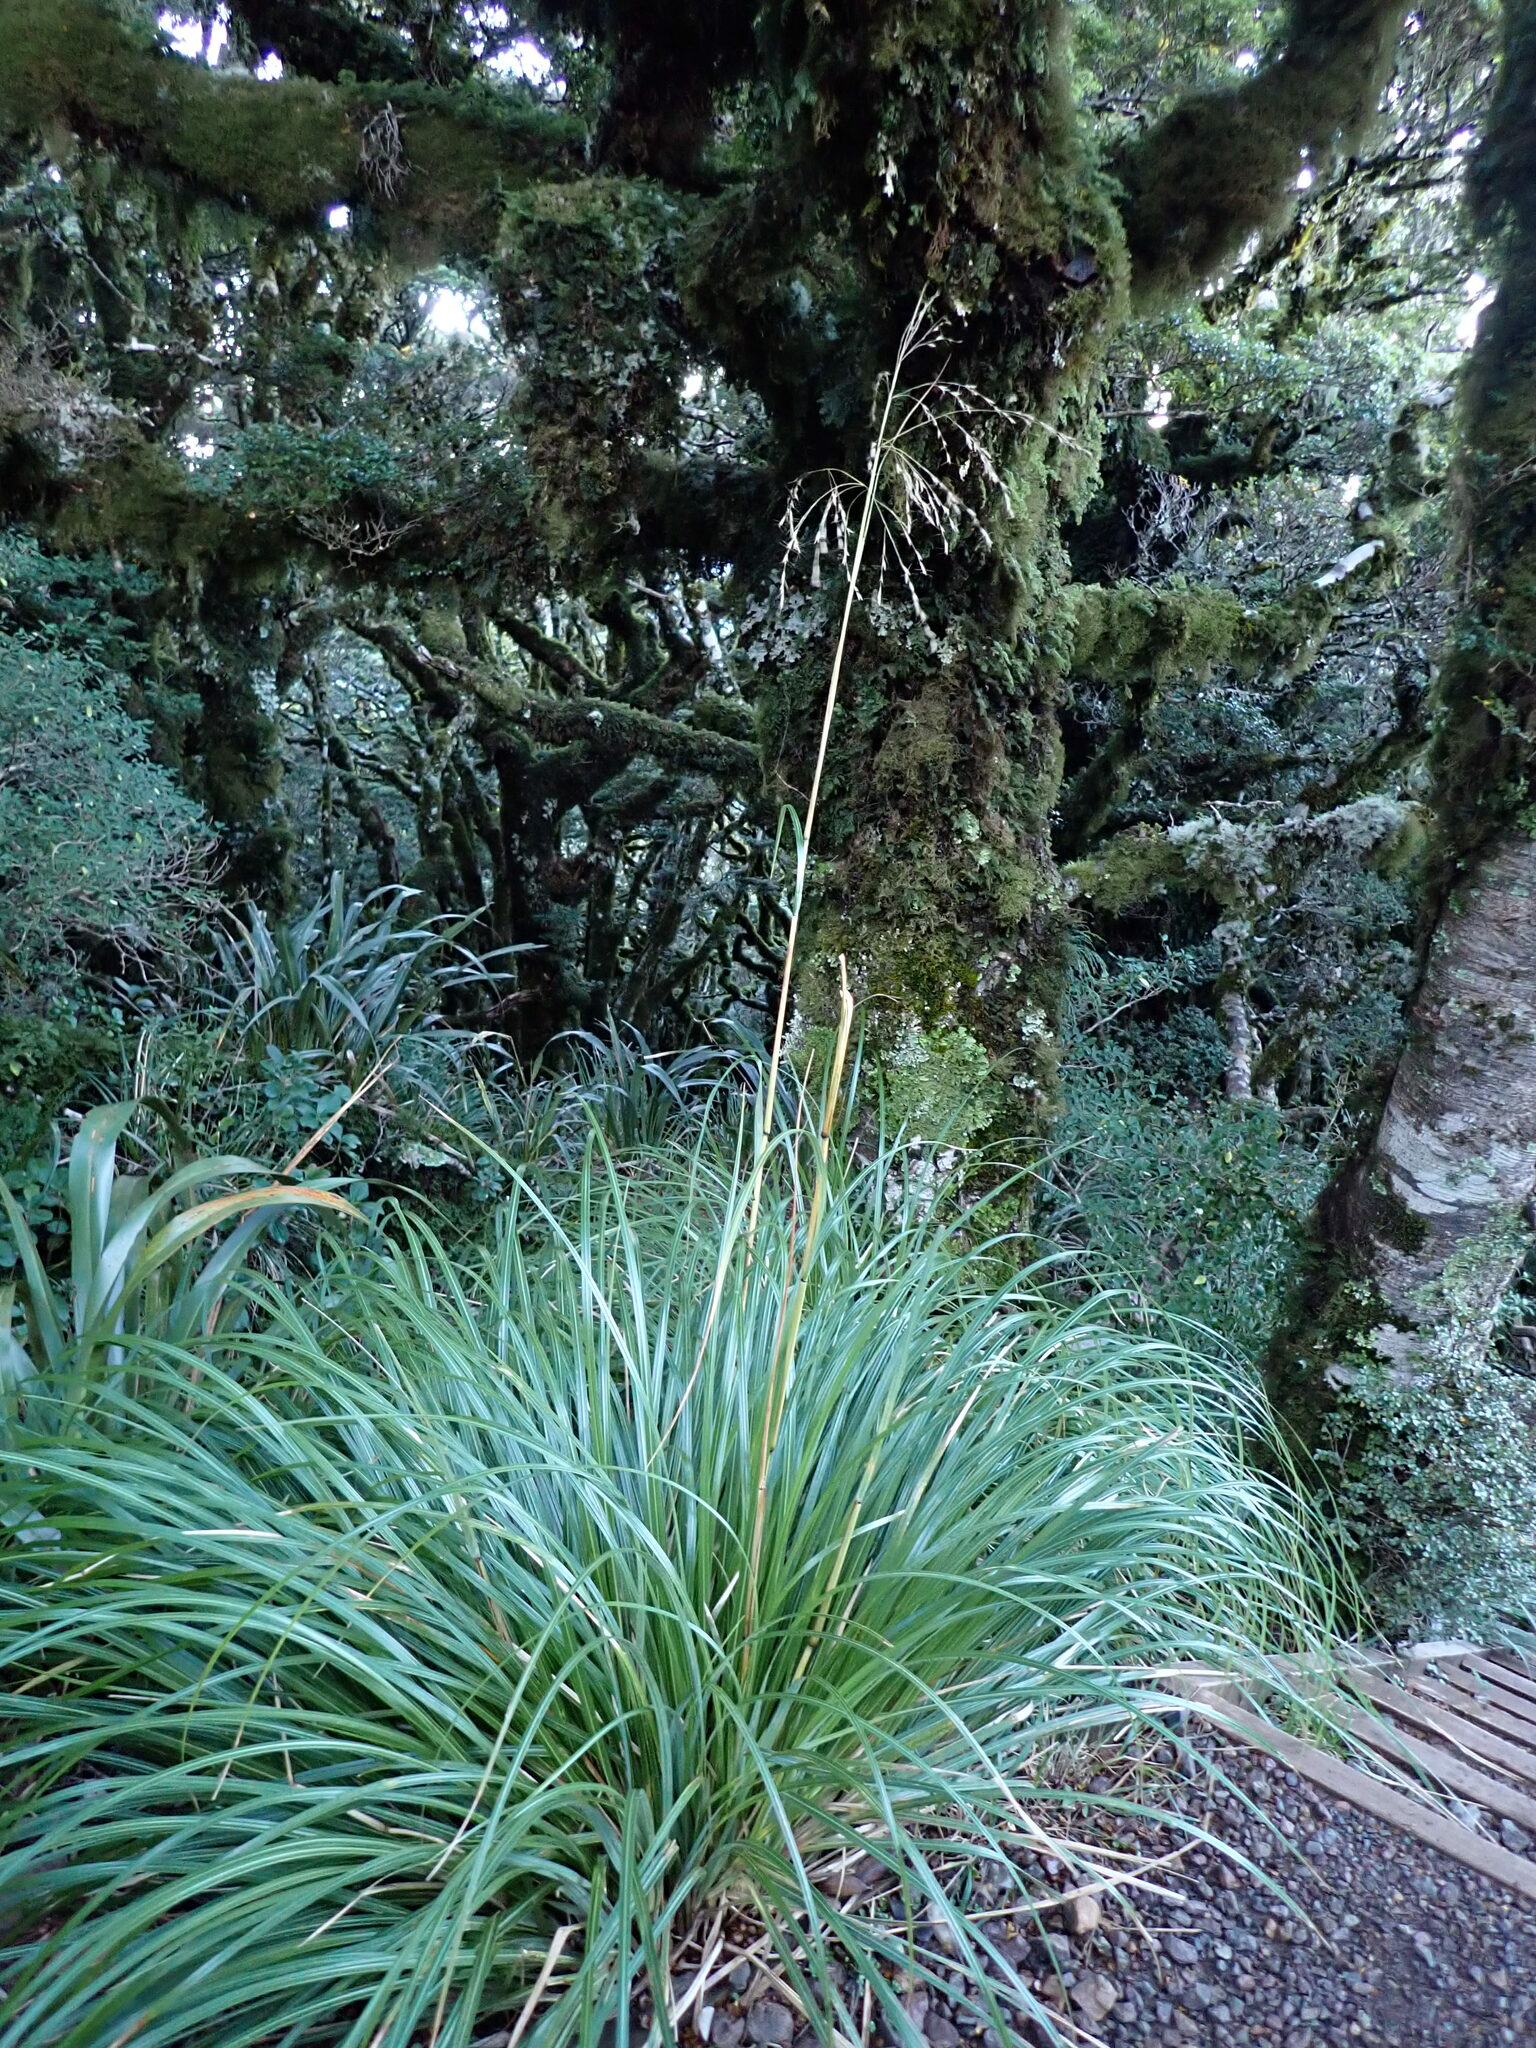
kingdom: Plantae
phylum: Tracheophyta
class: Liliopsida
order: Poales
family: Poaceae
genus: Chionochloa
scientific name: Chionochloa conspicua
